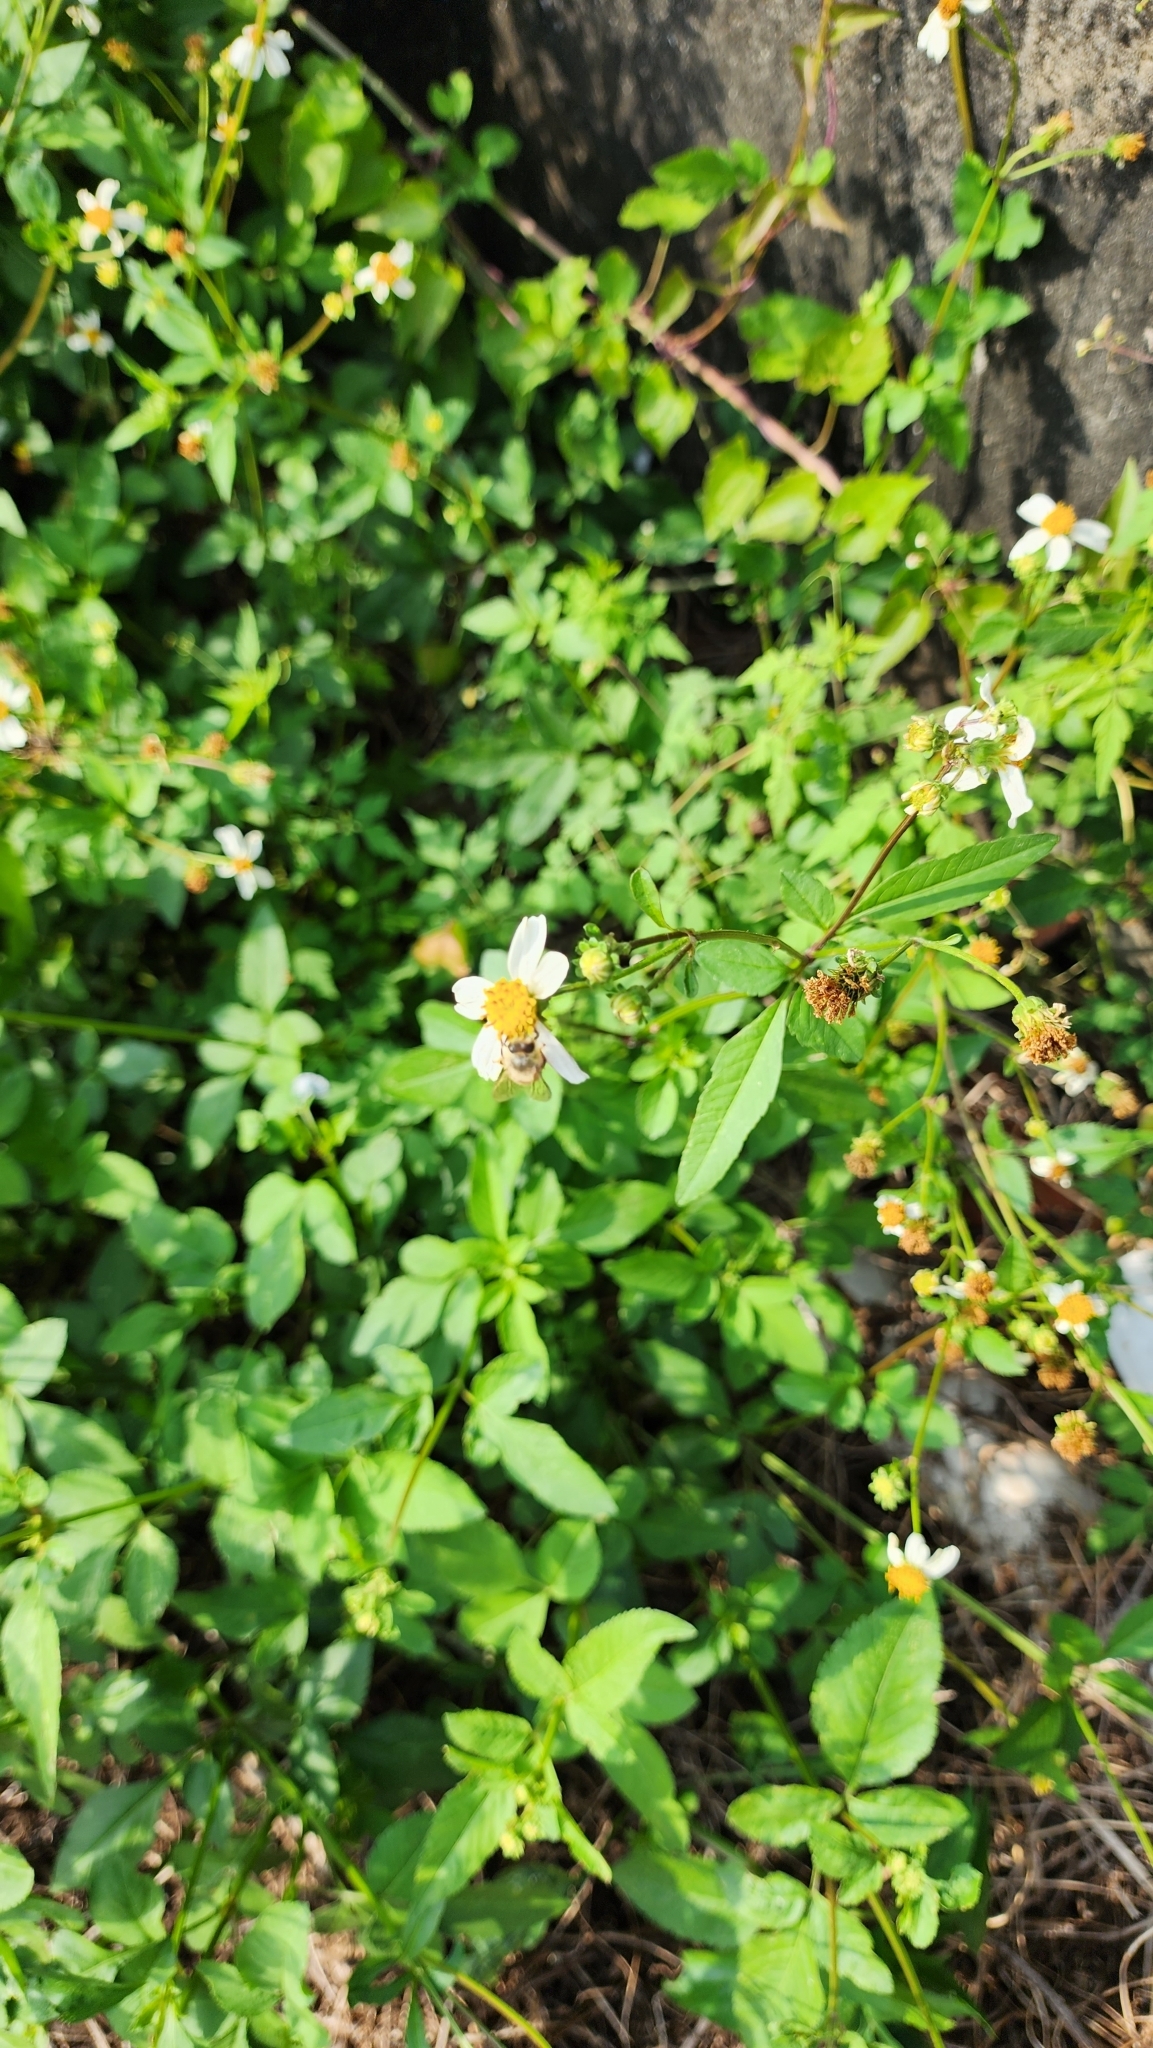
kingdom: Plantae
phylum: Tracheophyta
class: Magnoliopsida
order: Asterales
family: Asteraceae
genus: Bidens
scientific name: Bidens alba
